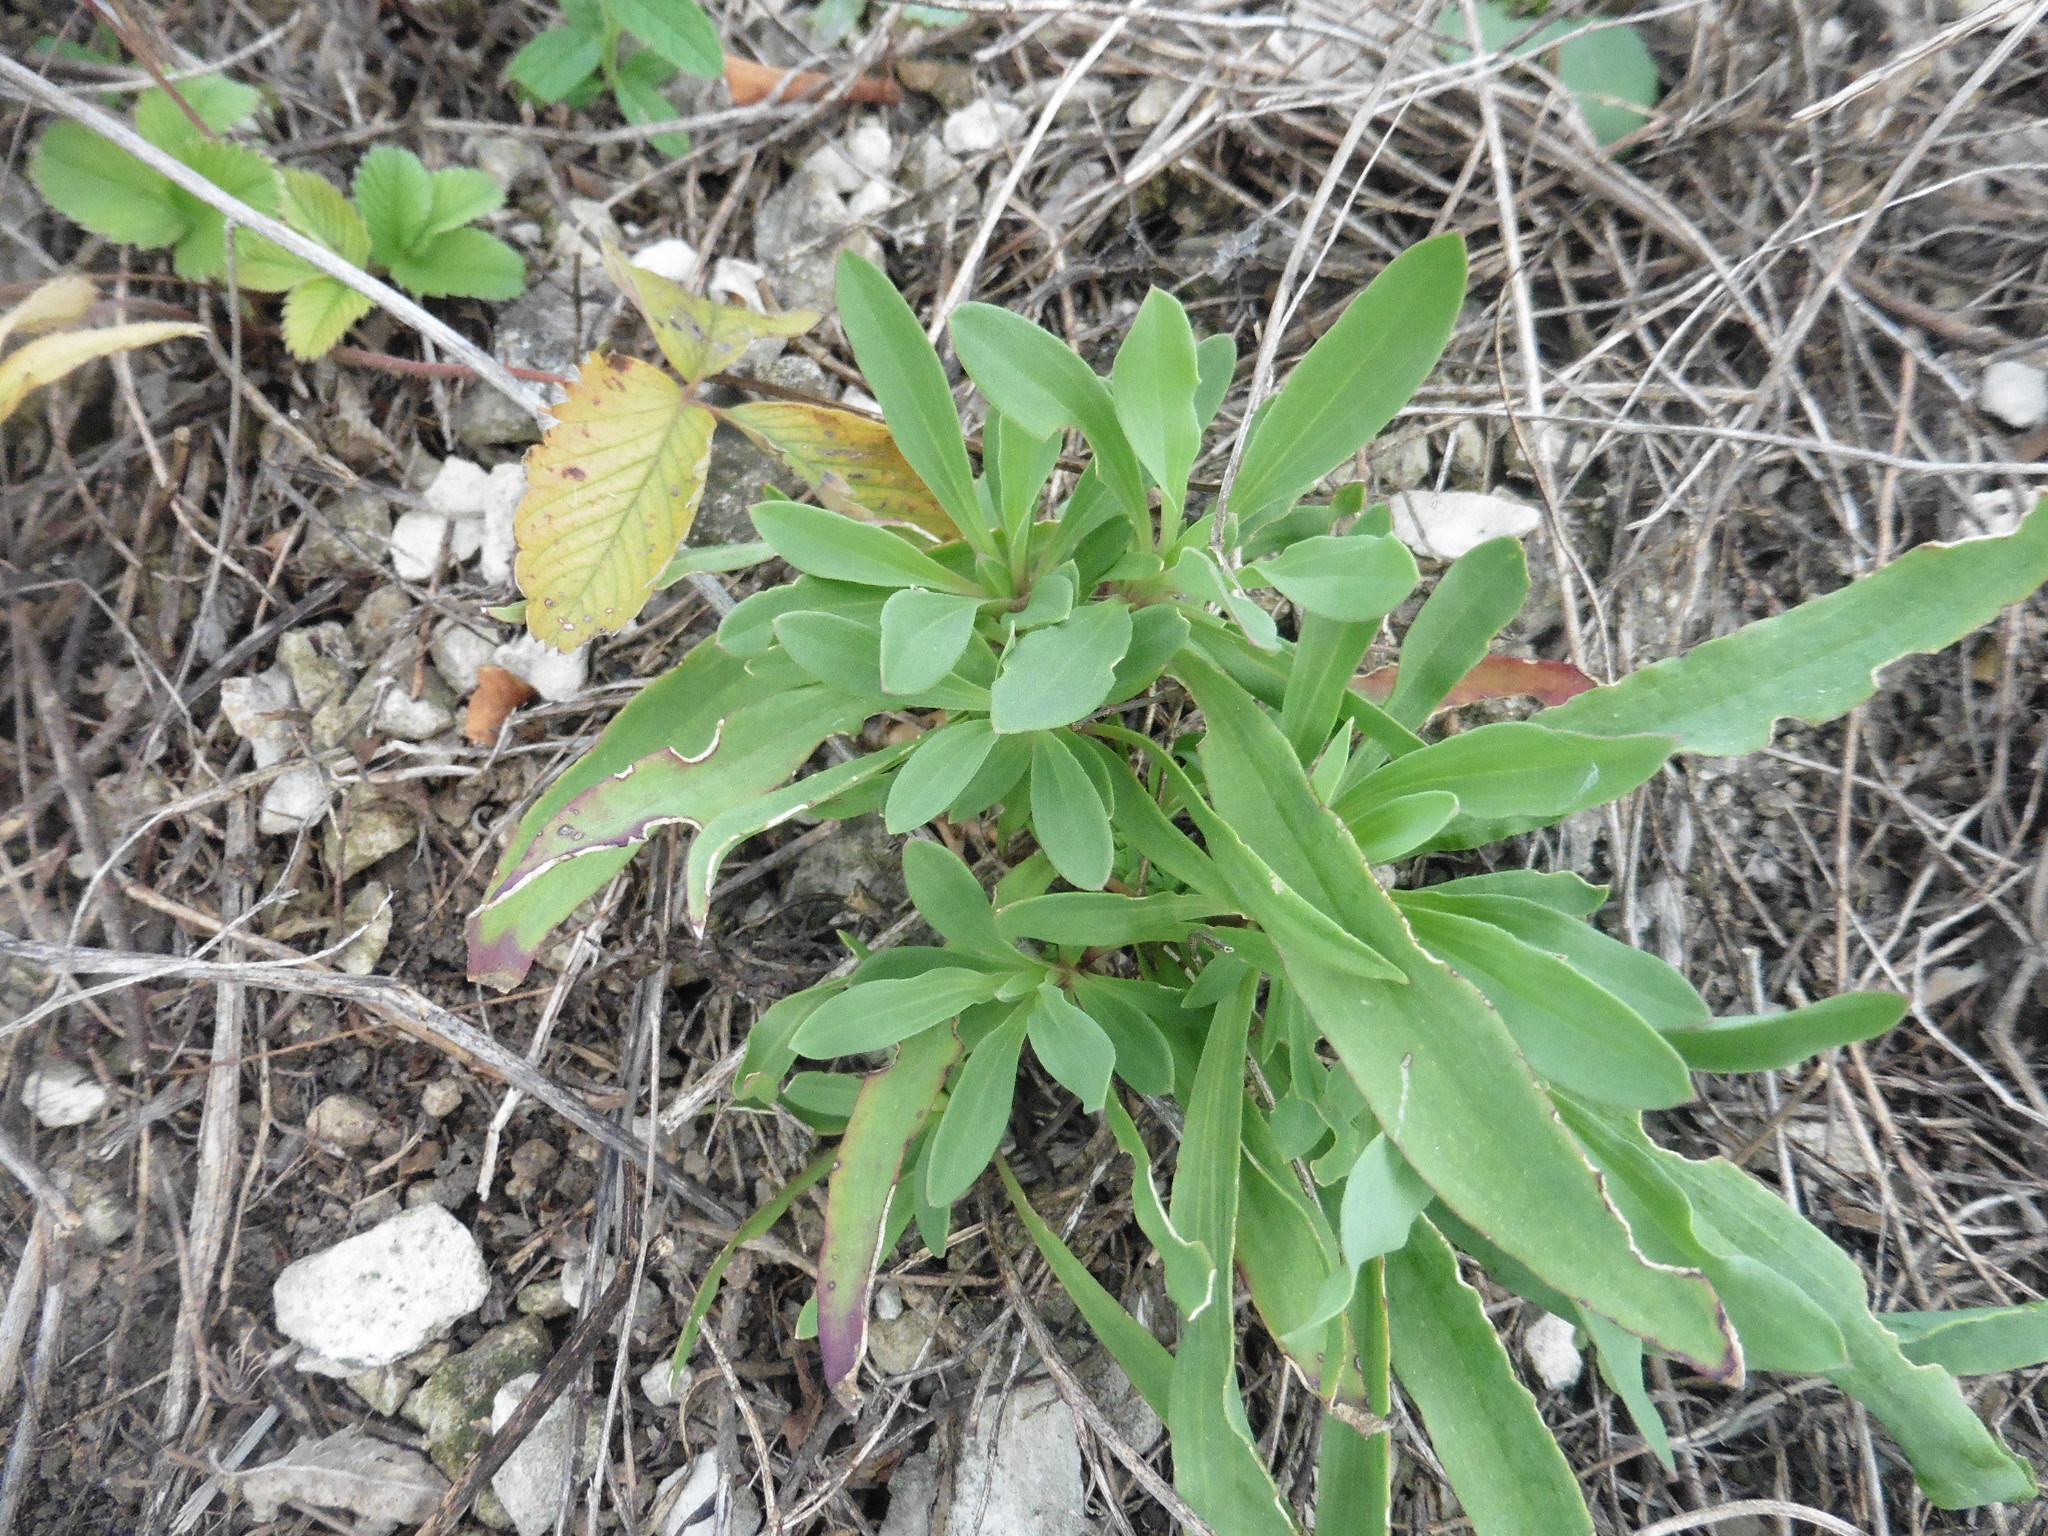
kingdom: Plantae
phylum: Tracheophyta
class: Magnoliopsida
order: Caryophyllales
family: Caryophyllaceae
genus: Gypsophila
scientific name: Gypsophila altissima
